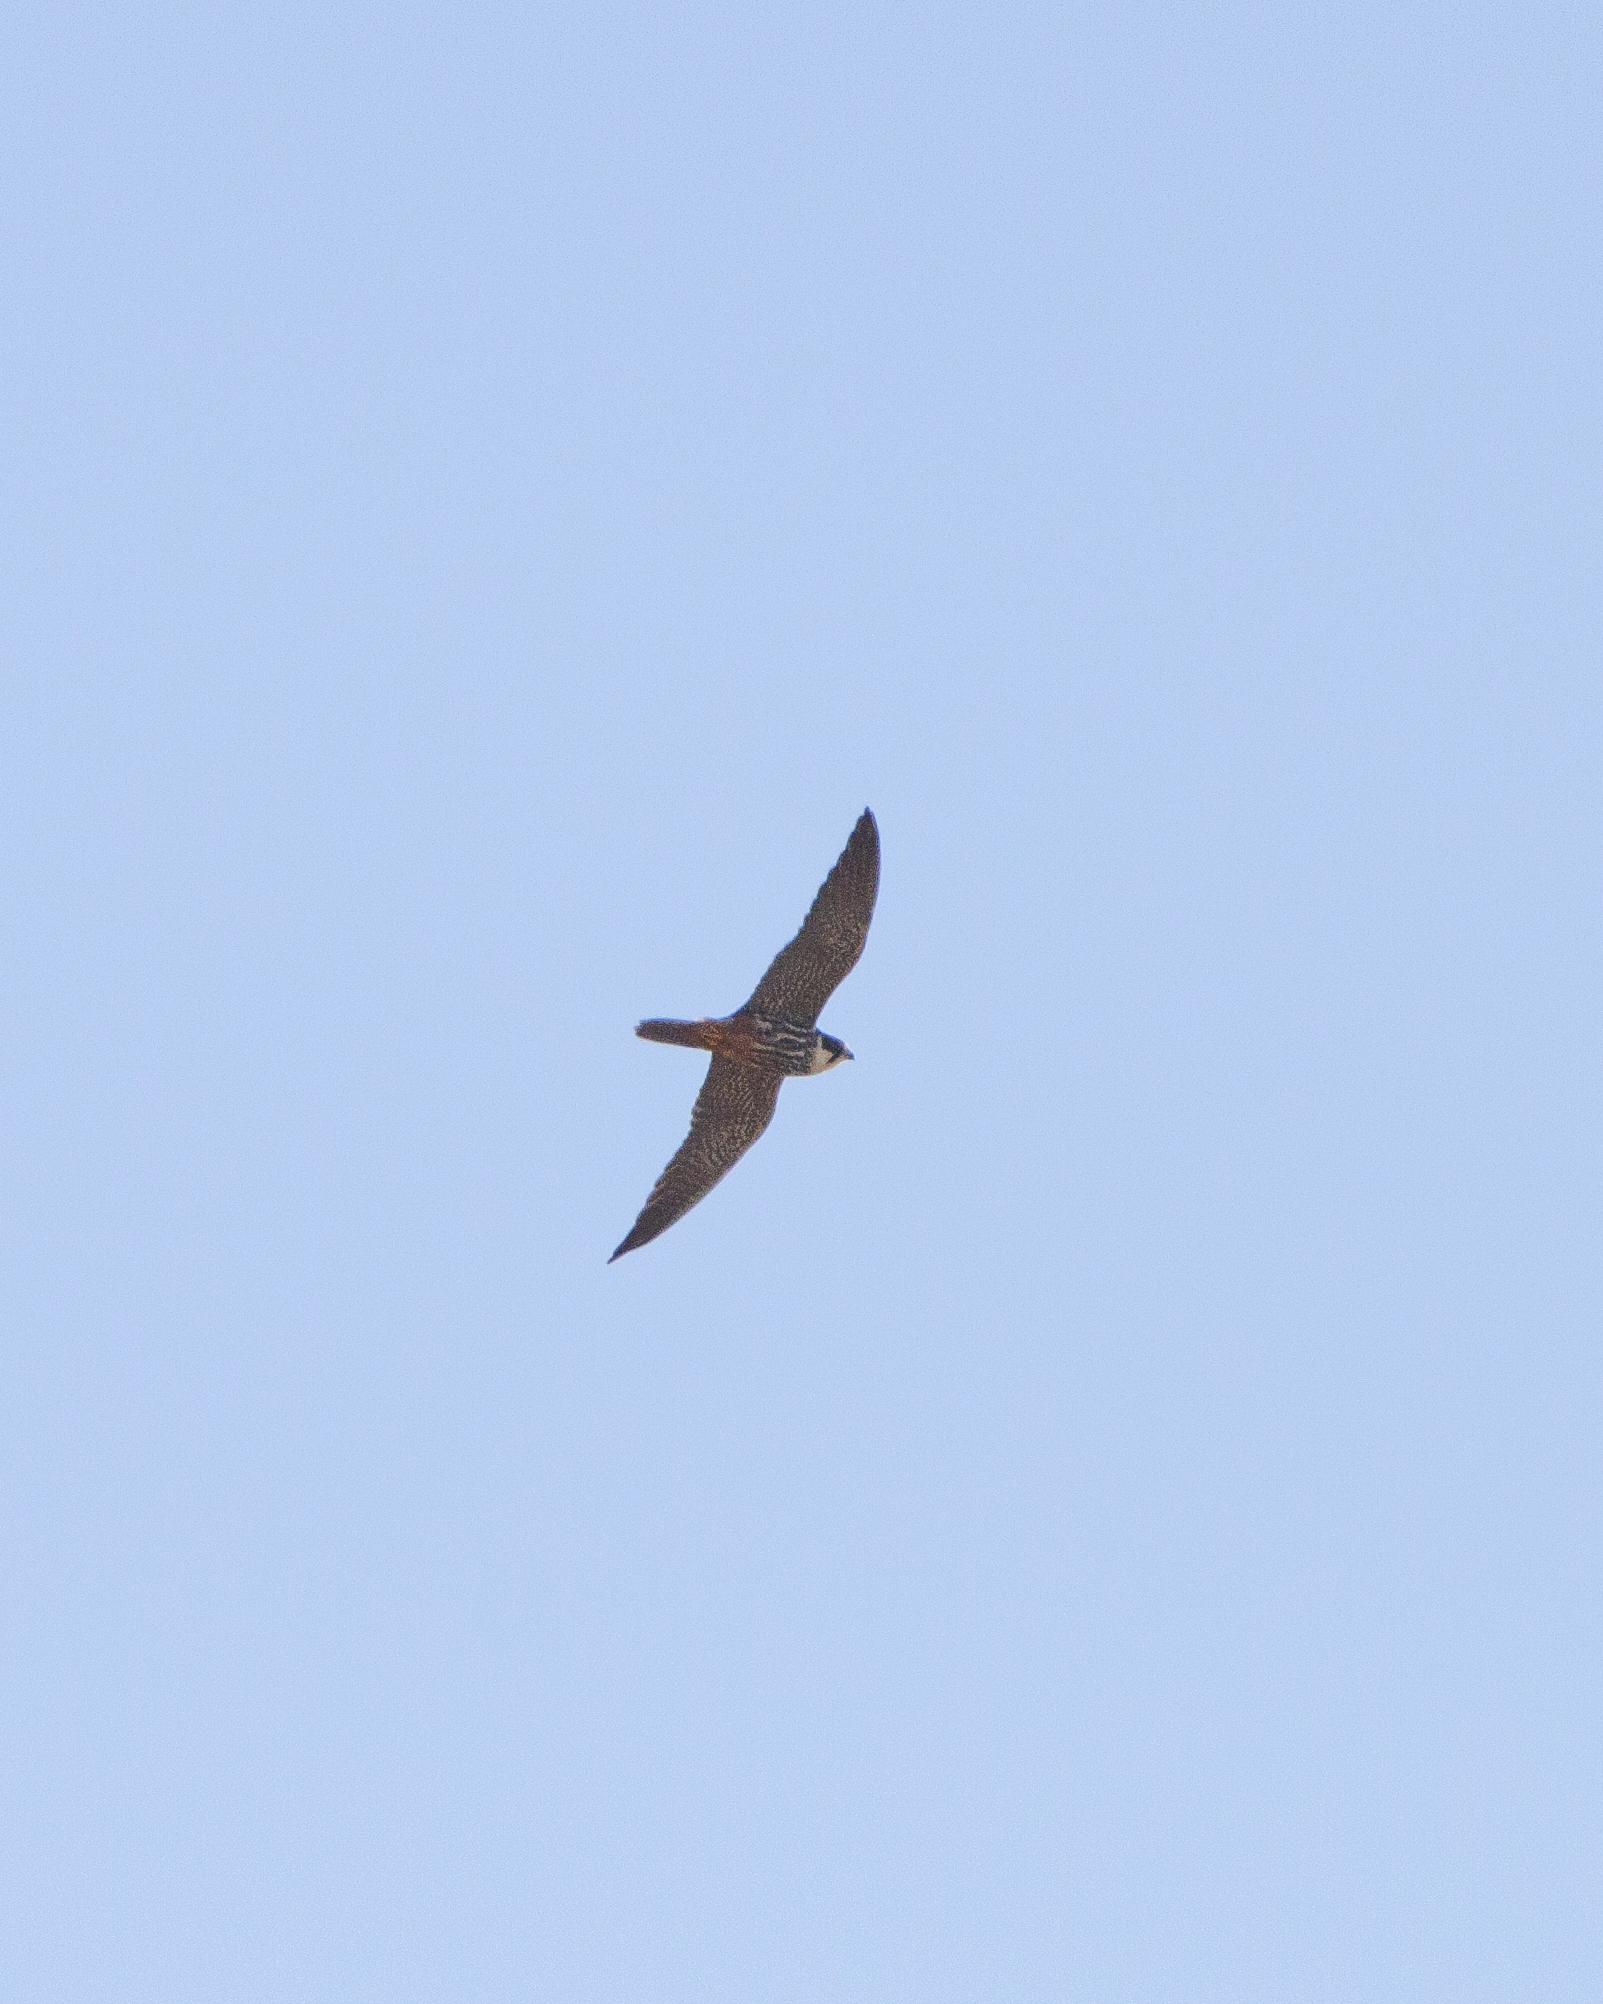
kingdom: Animalia
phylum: Chordata
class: Aves
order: Falconiformes
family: Falconidae
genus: Falco
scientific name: Falco subbuteo
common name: Eurasian hobby
